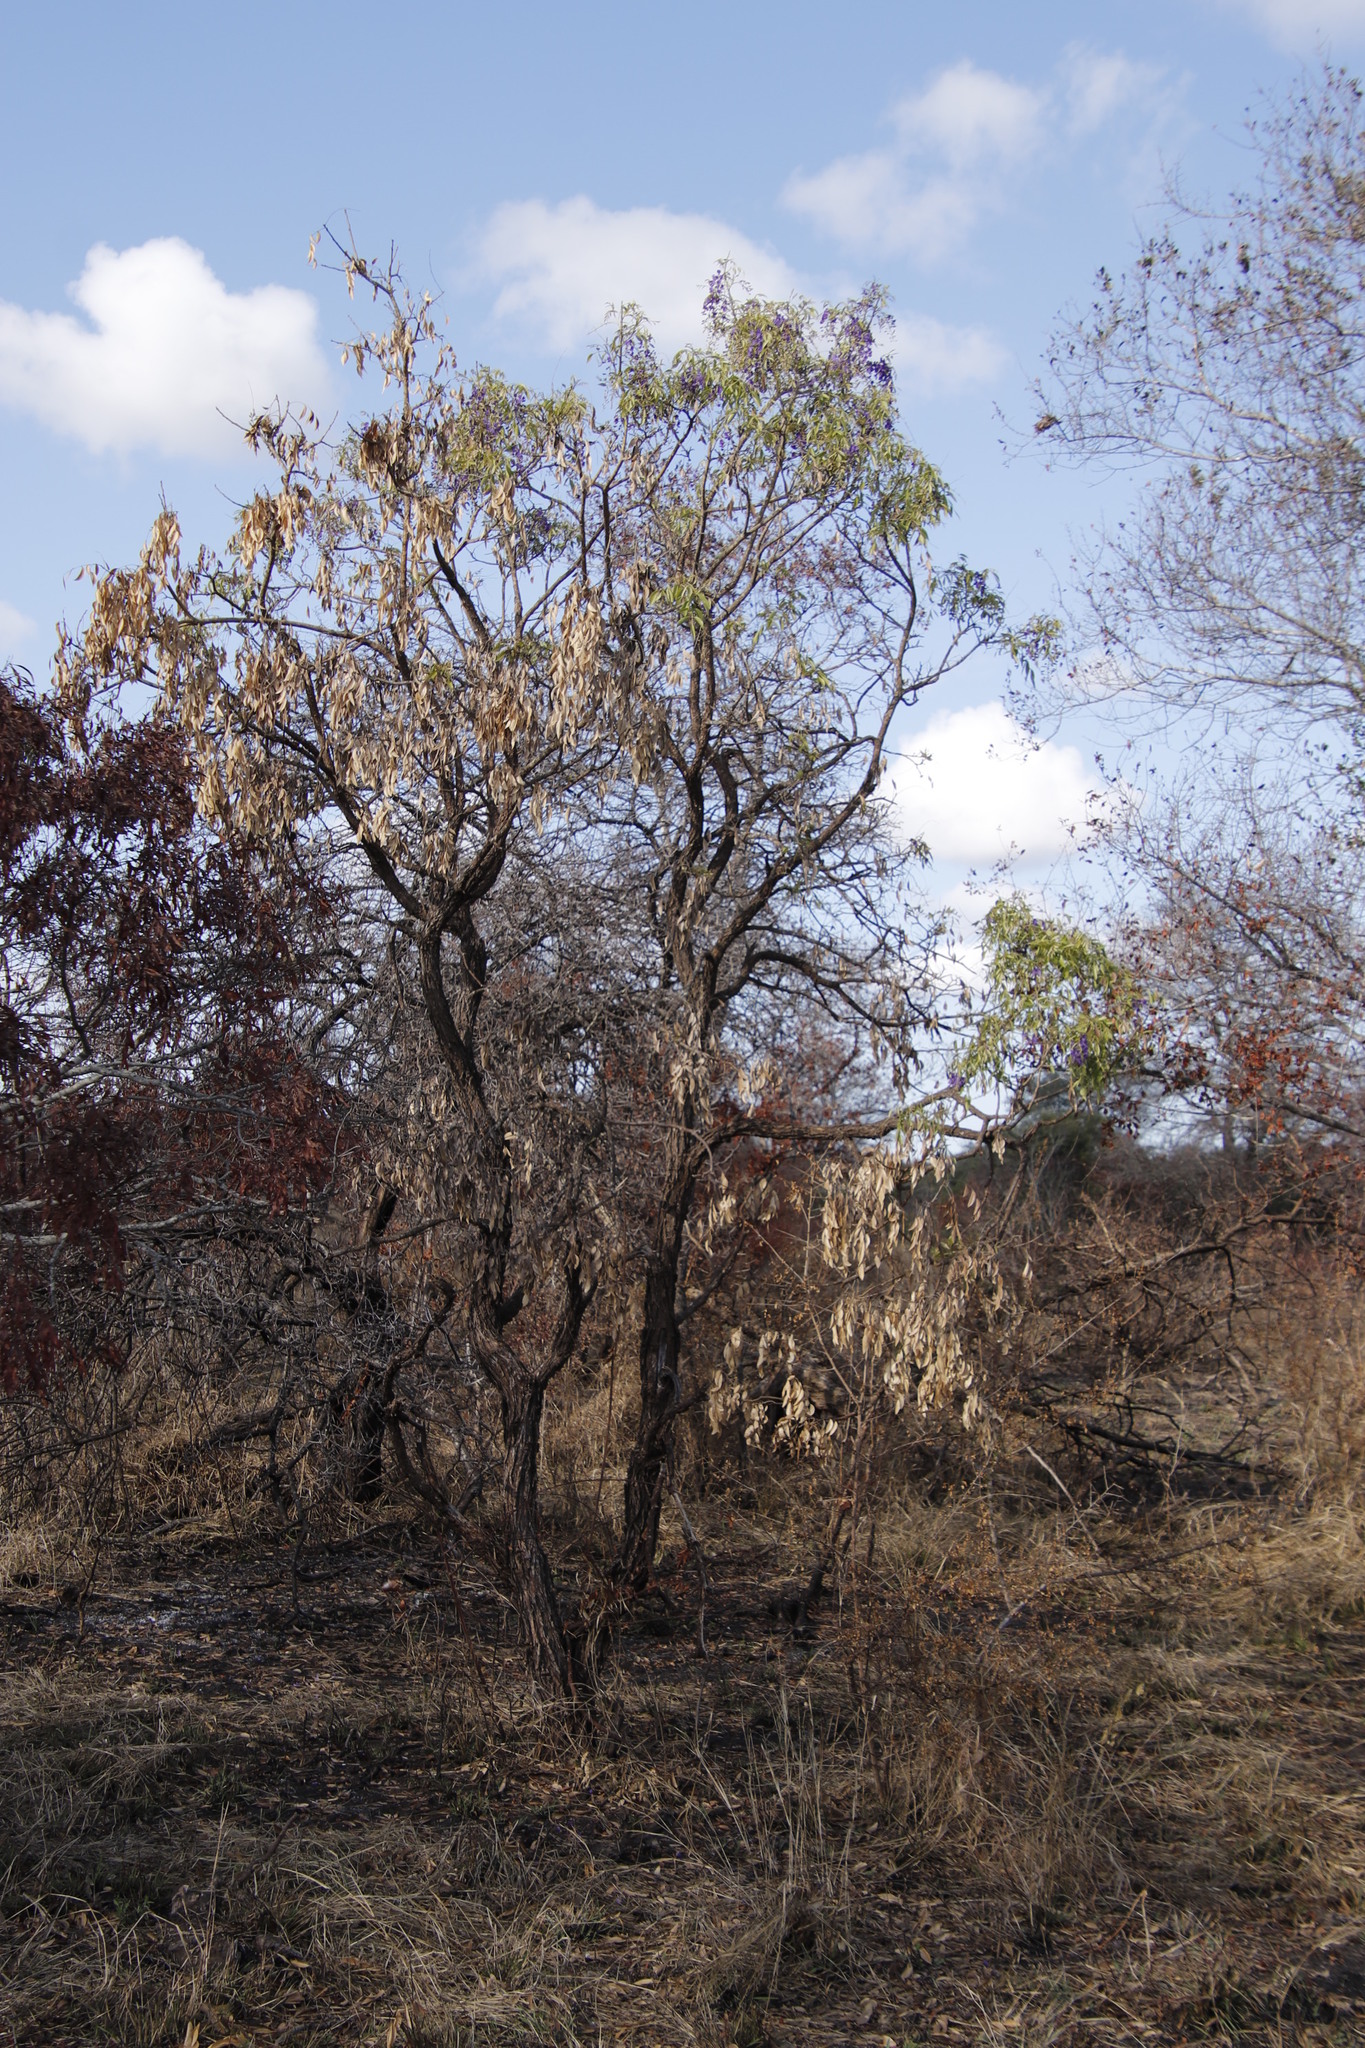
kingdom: Plantae
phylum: Tracheophyta
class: Magnoliopsida
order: Fabales
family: Fabaceae
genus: Bolusanthus
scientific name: Bolusanthus speciosus
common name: Tree wisteria
